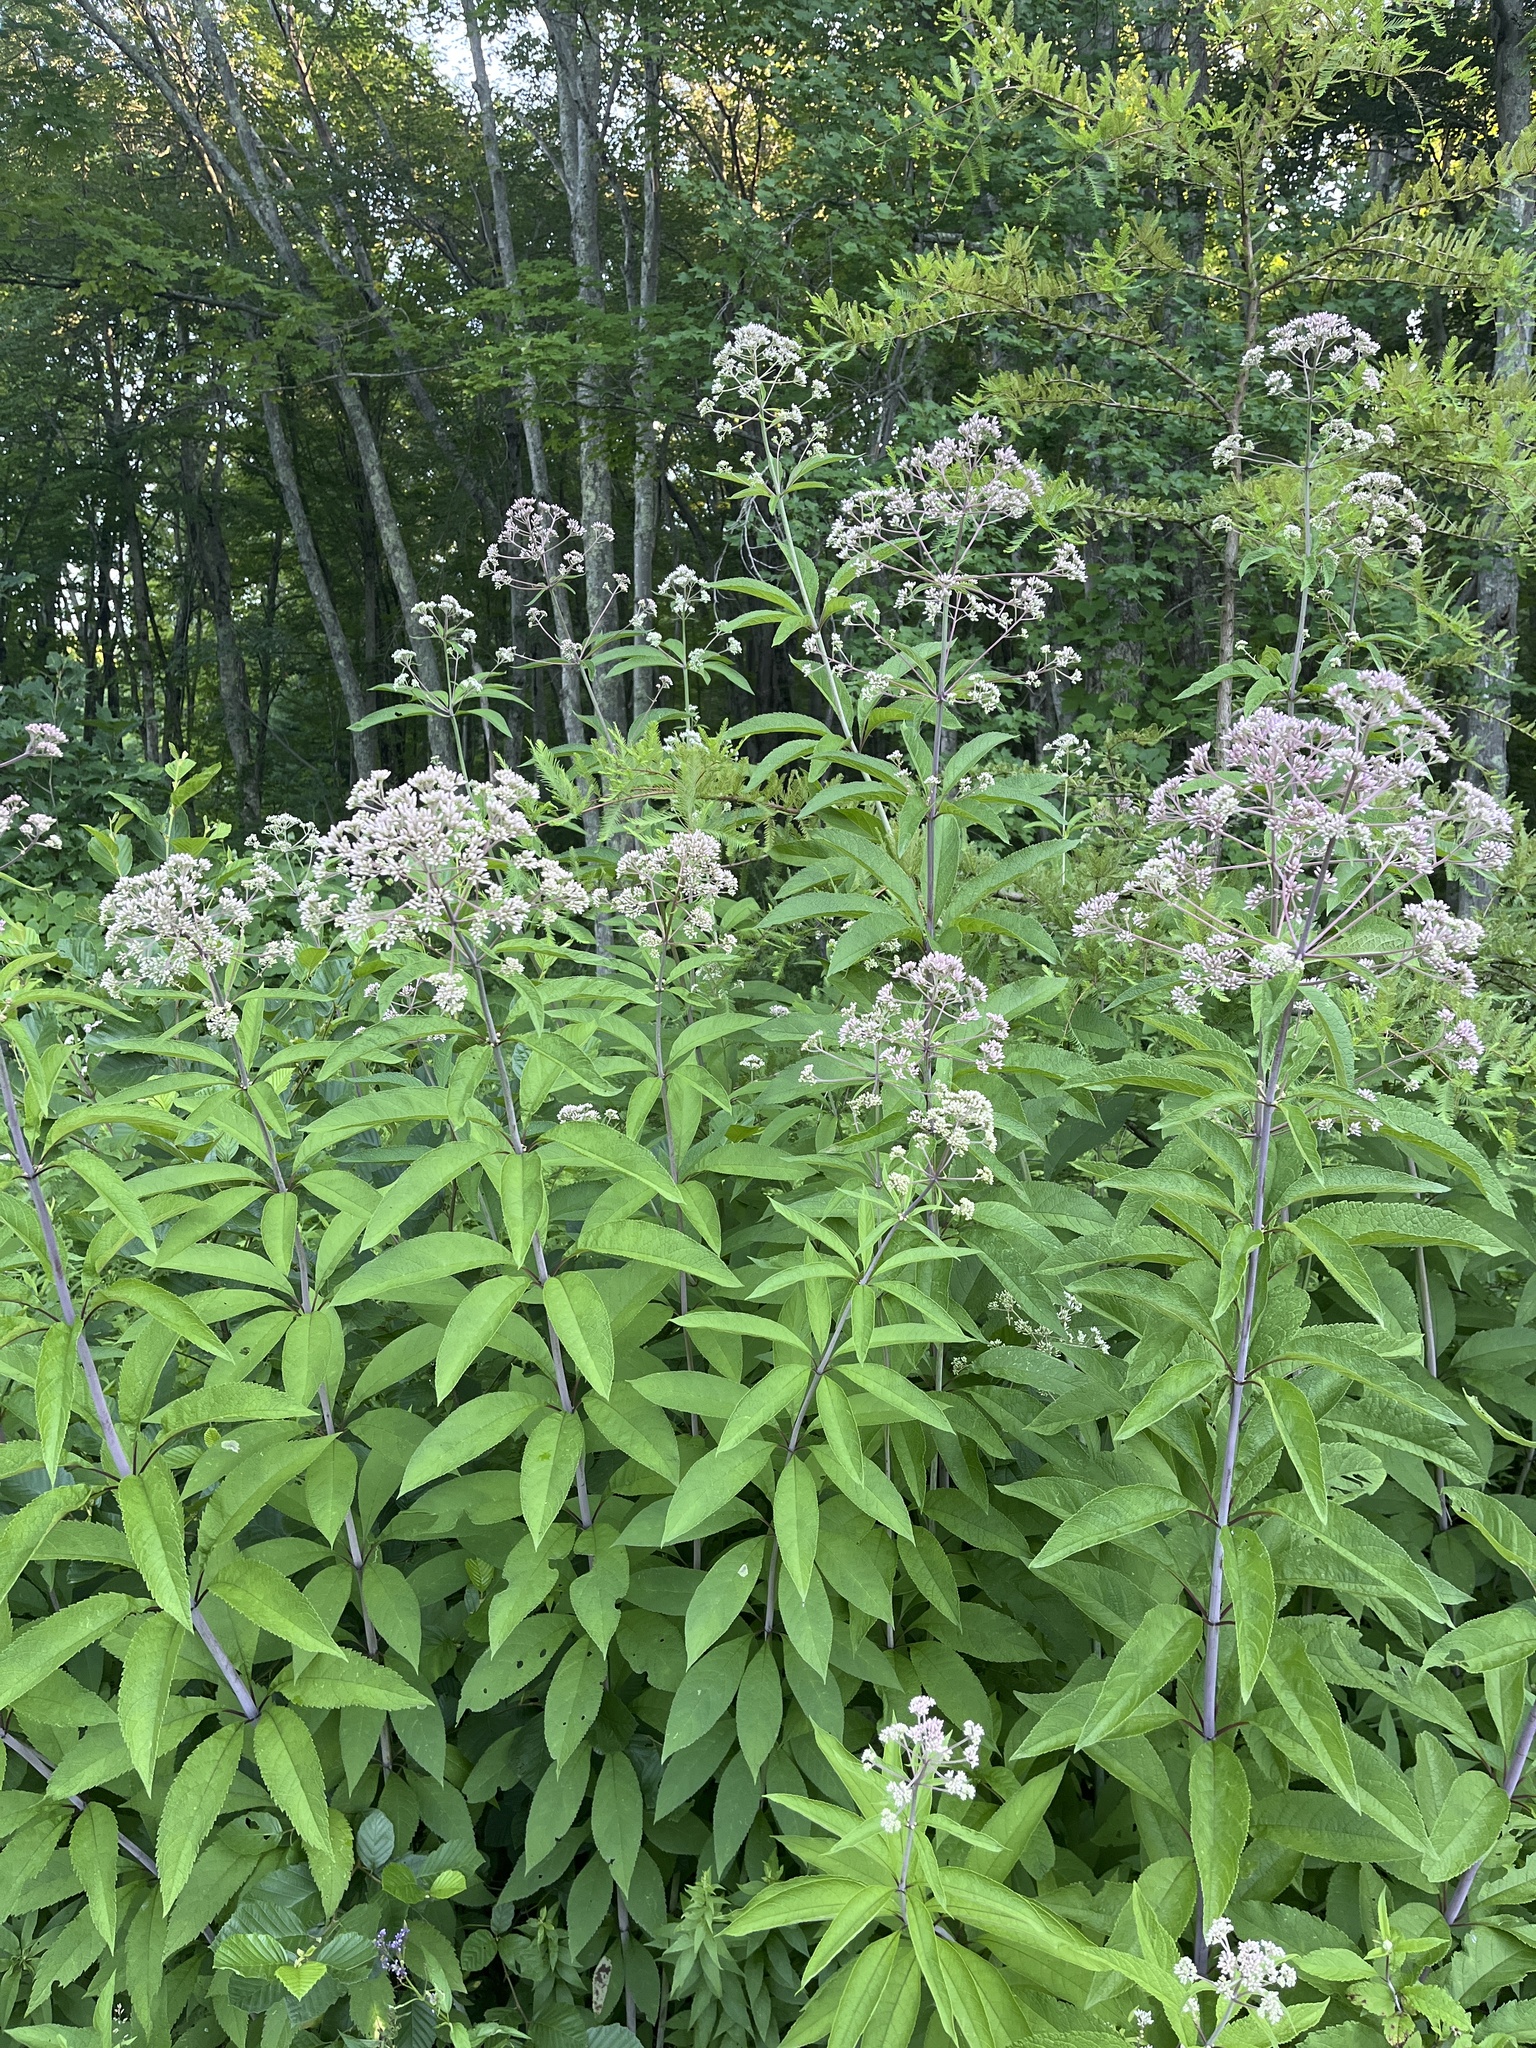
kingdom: Plantae
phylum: Tracheophyta
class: Magnoliopsida
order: Asterales
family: Asteraceae
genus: Eutrochium
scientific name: Eutrochium fistulosum
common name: Trumpetweed
